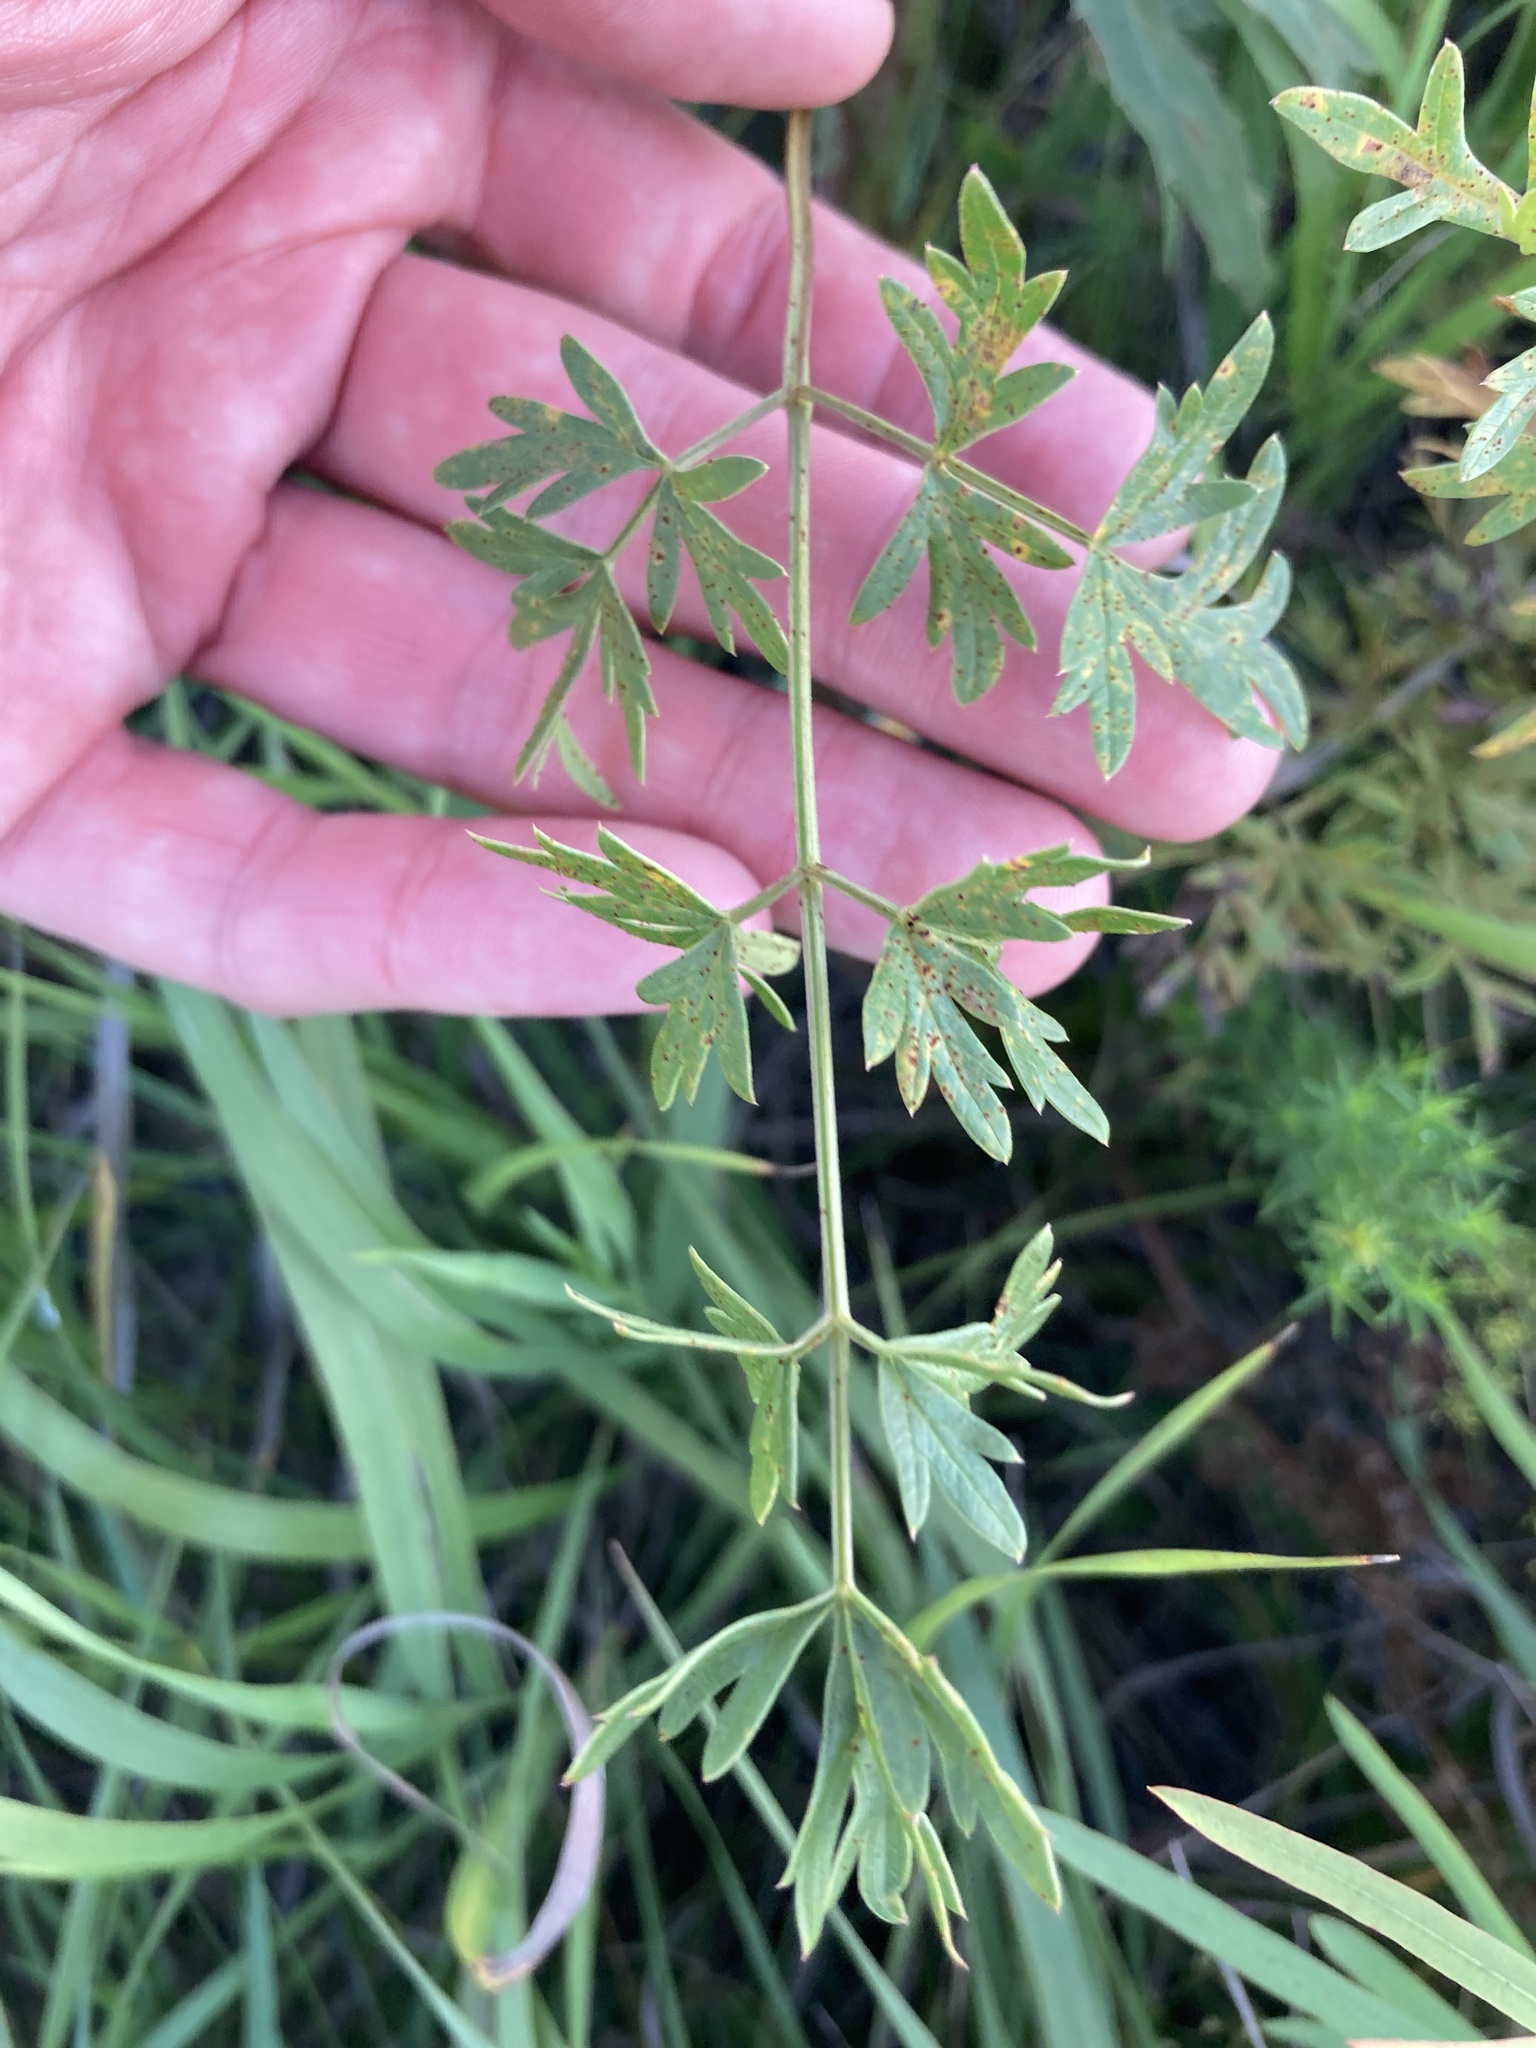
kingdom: Plantae
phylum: Tracheophyta
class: Magnoliopsida
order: Apiales
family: Apiaceae
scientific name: Apiaceae
